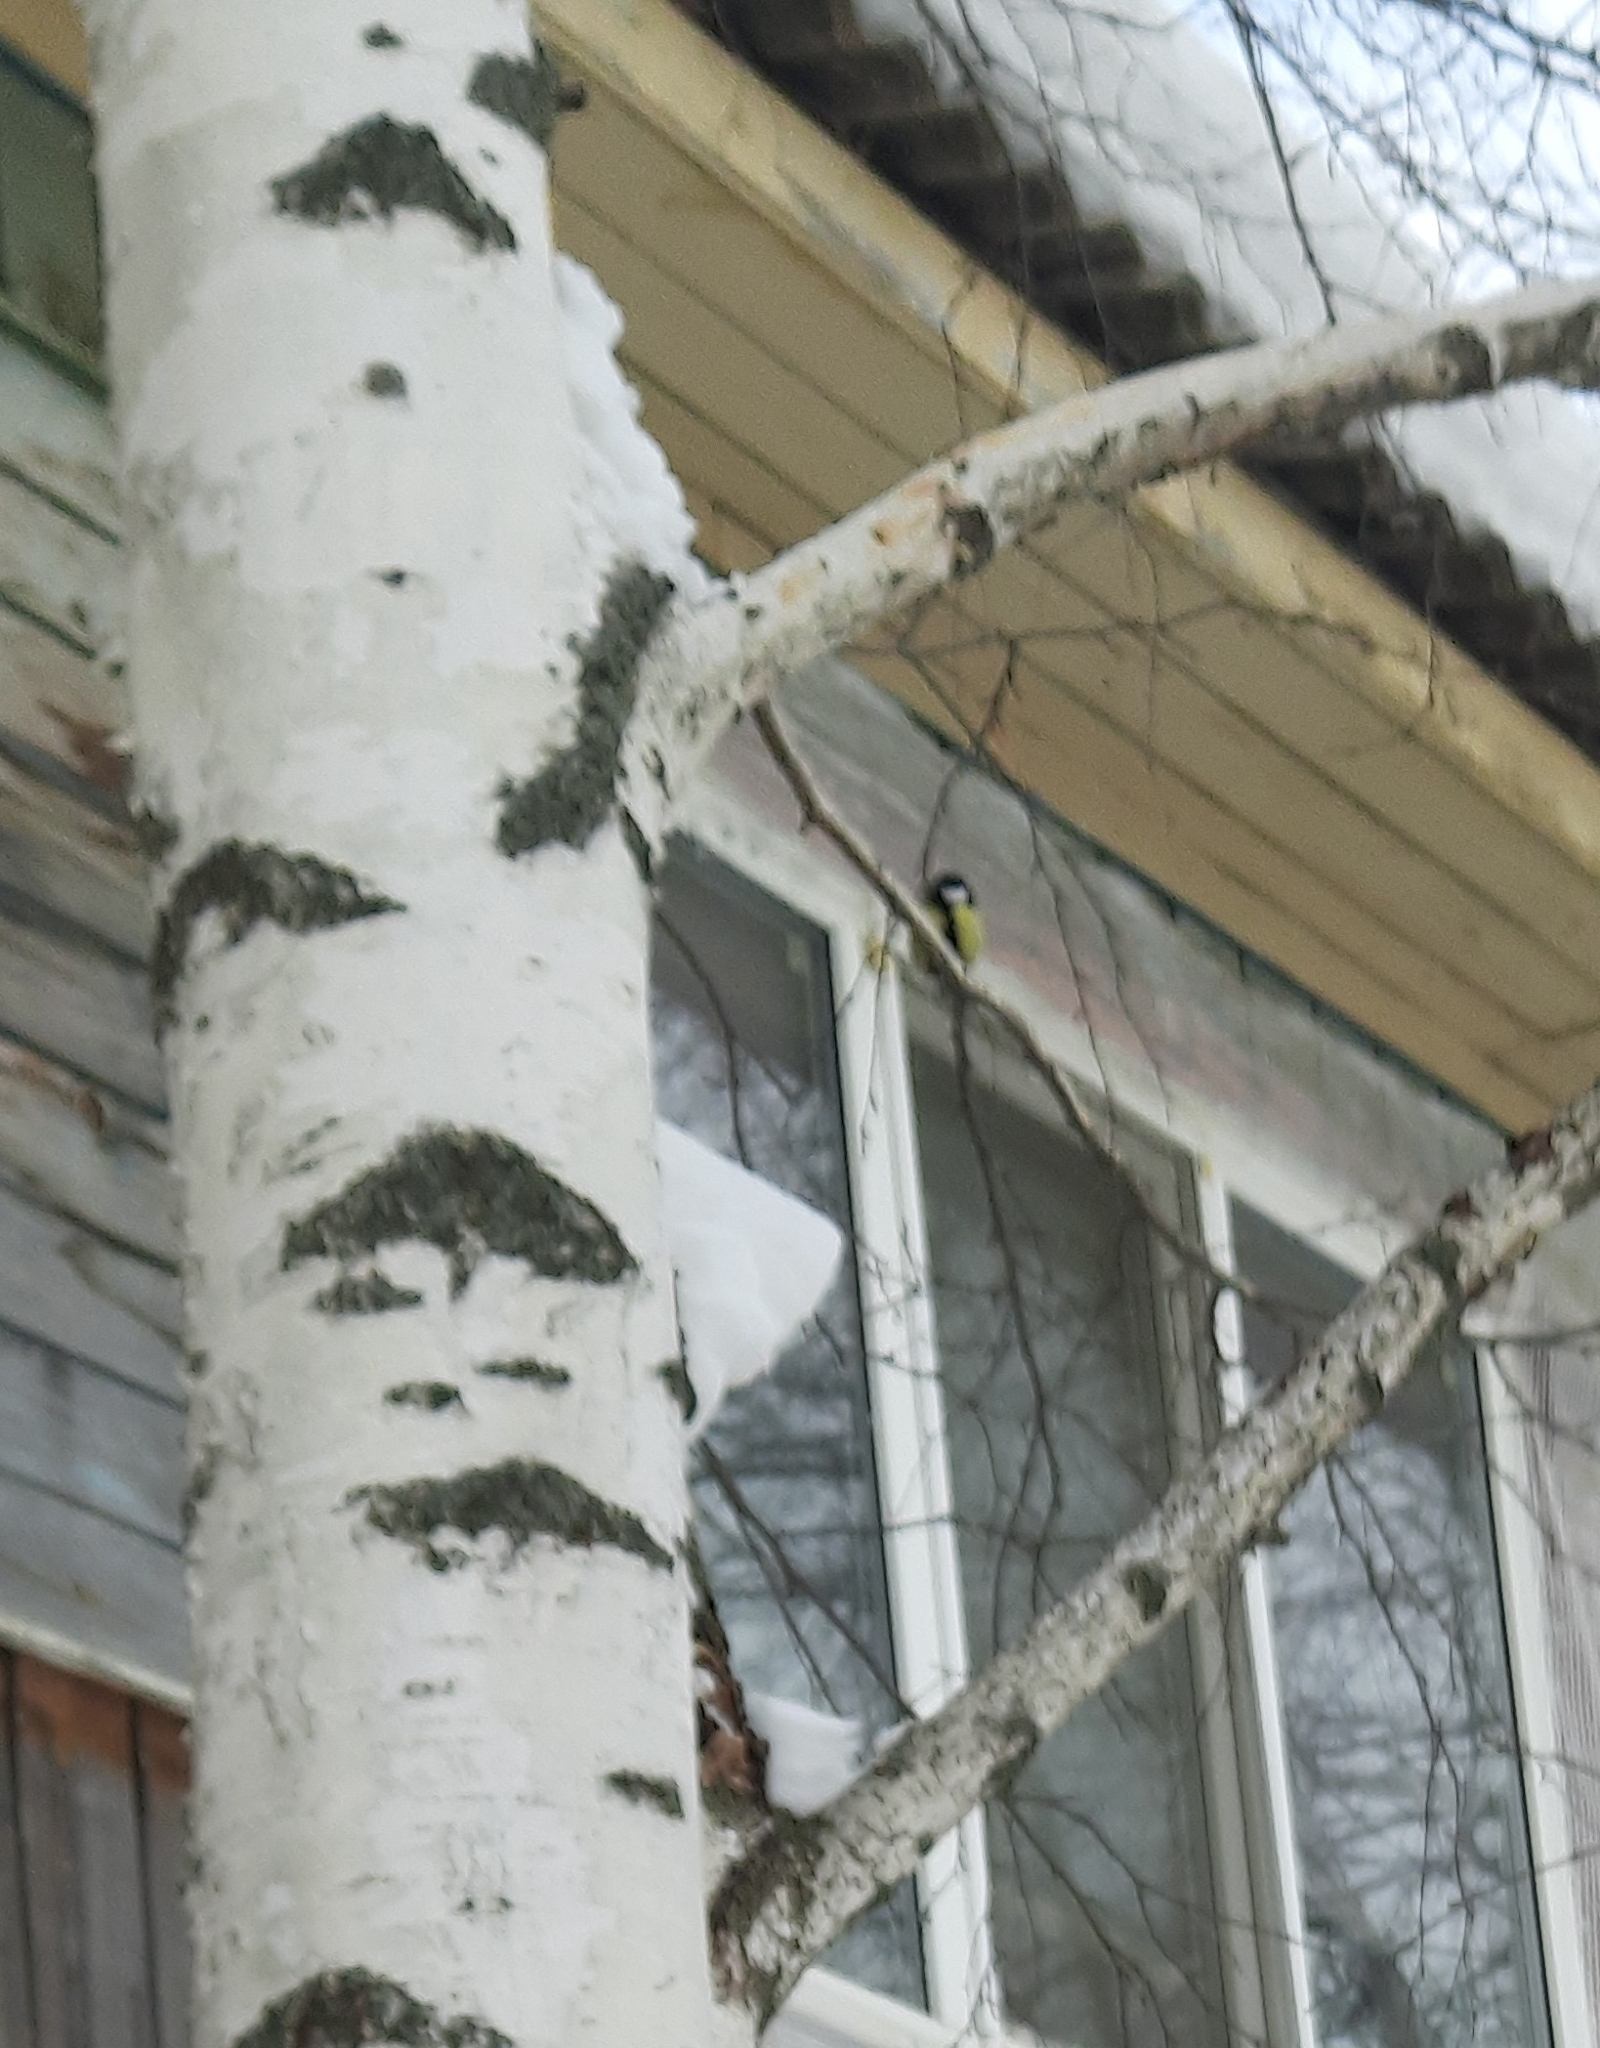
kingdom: Animalia
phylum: Chordata
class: Aves
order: Passeriformes
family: Paridae
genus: Parus
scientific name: Parus major
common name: Great tit
